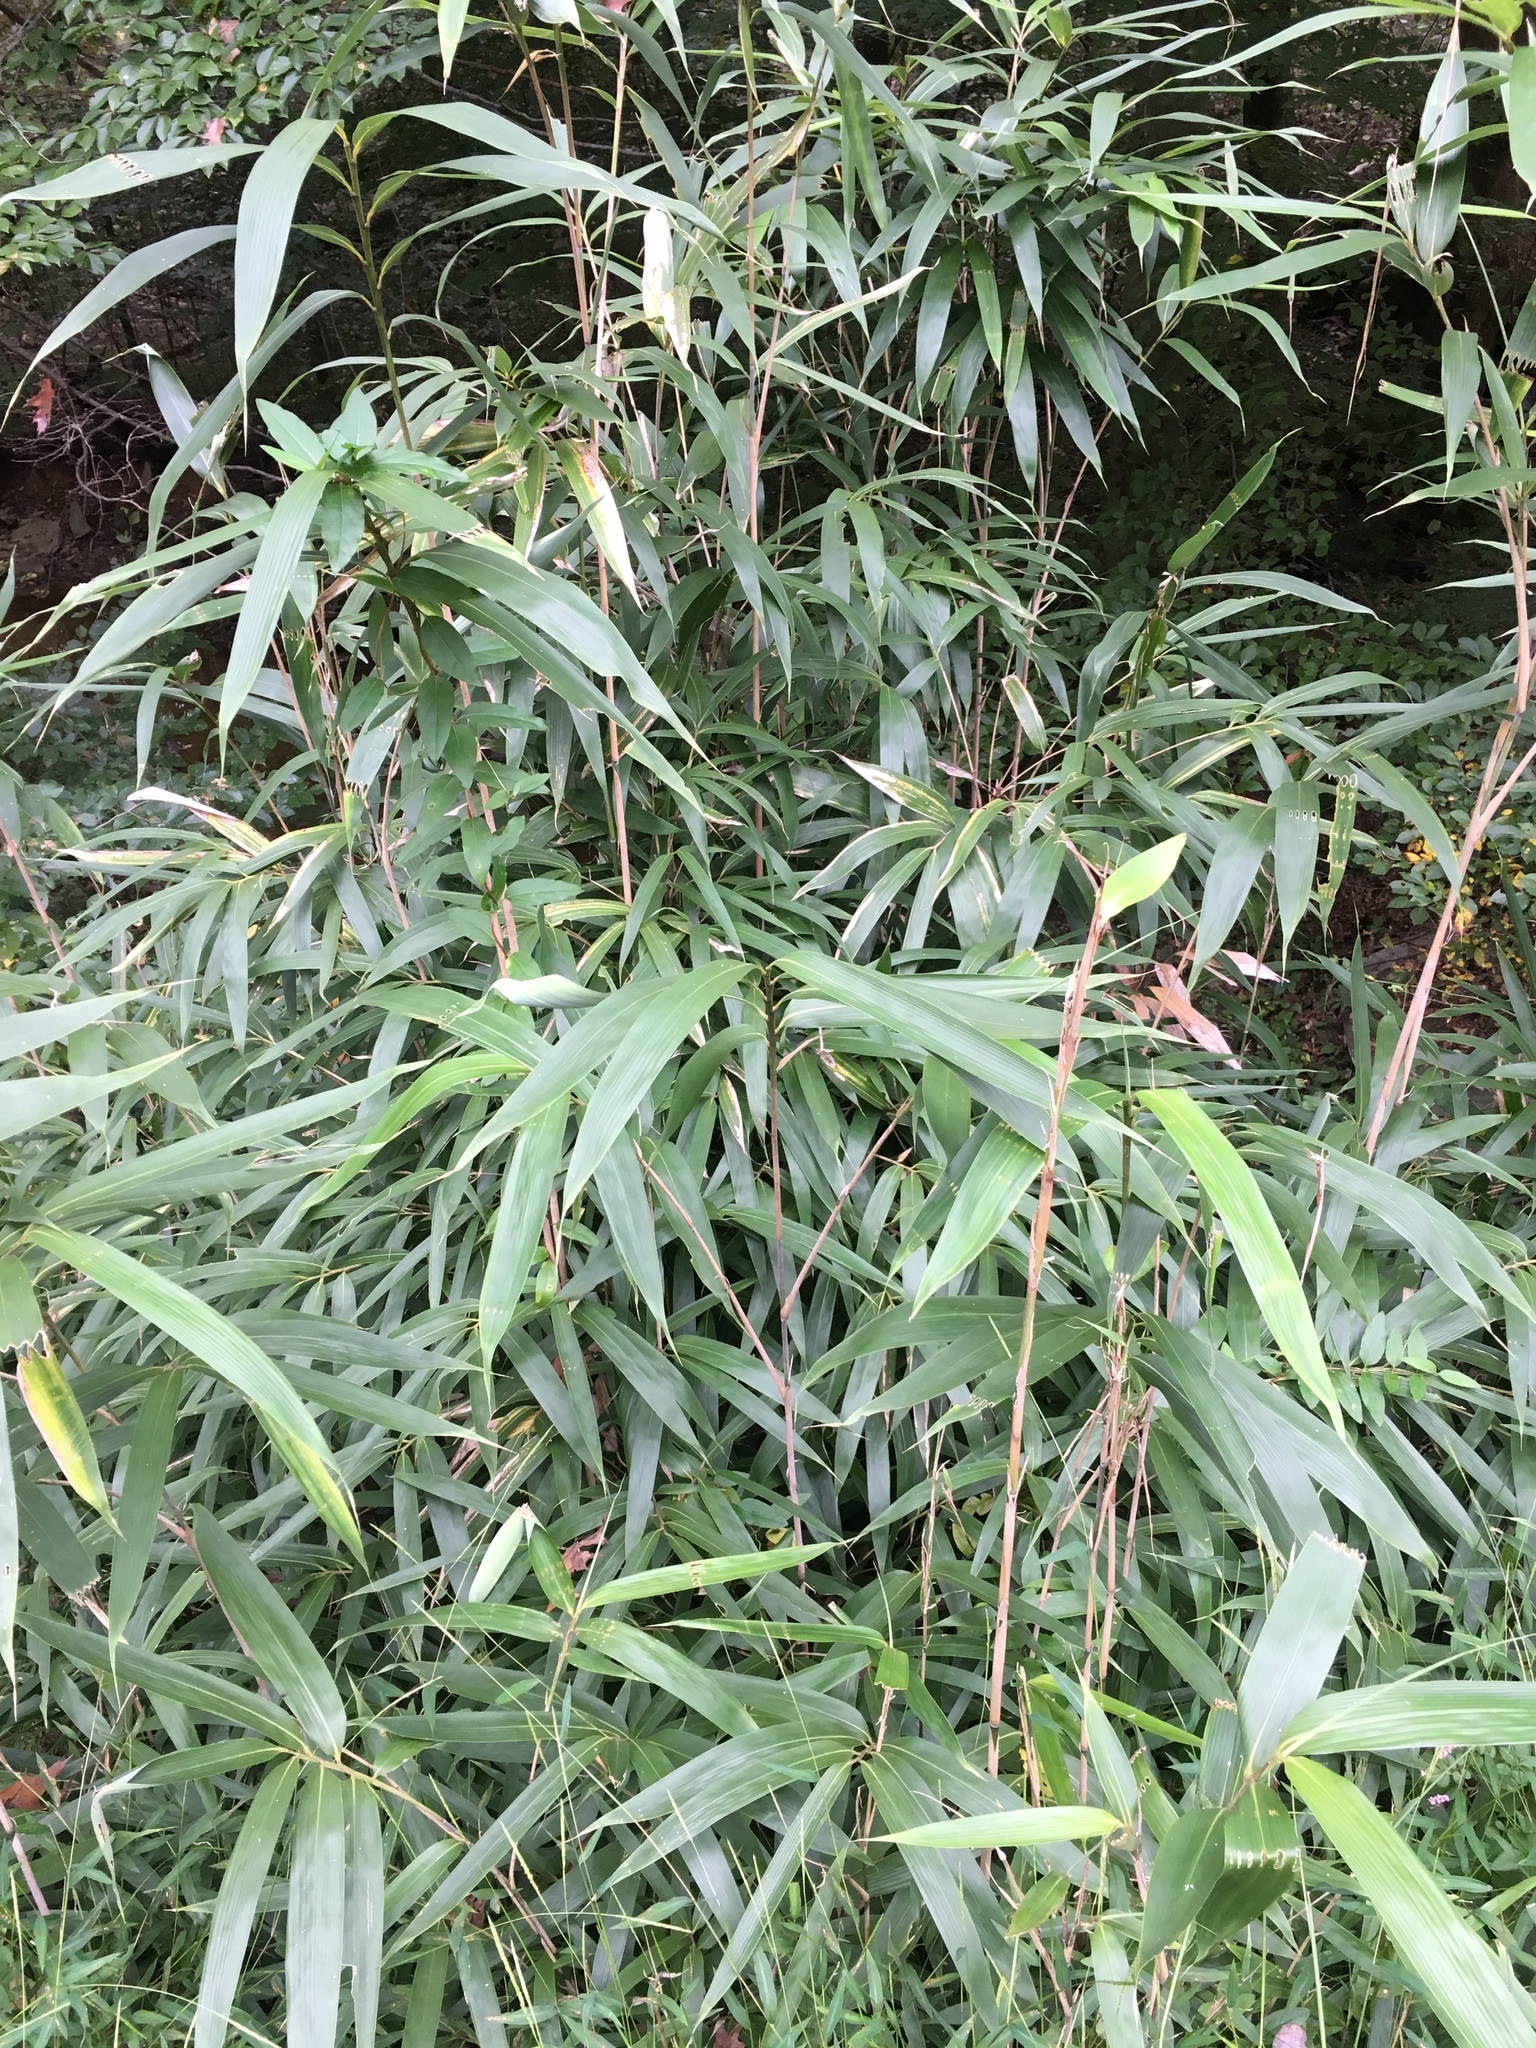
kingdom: Plantae
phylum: Tracheophyta
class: Liliopsida
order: Poales
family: Poaceae
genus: Pseudosasa
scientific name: Pseudosasa japonica
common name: Arrow bamboo
